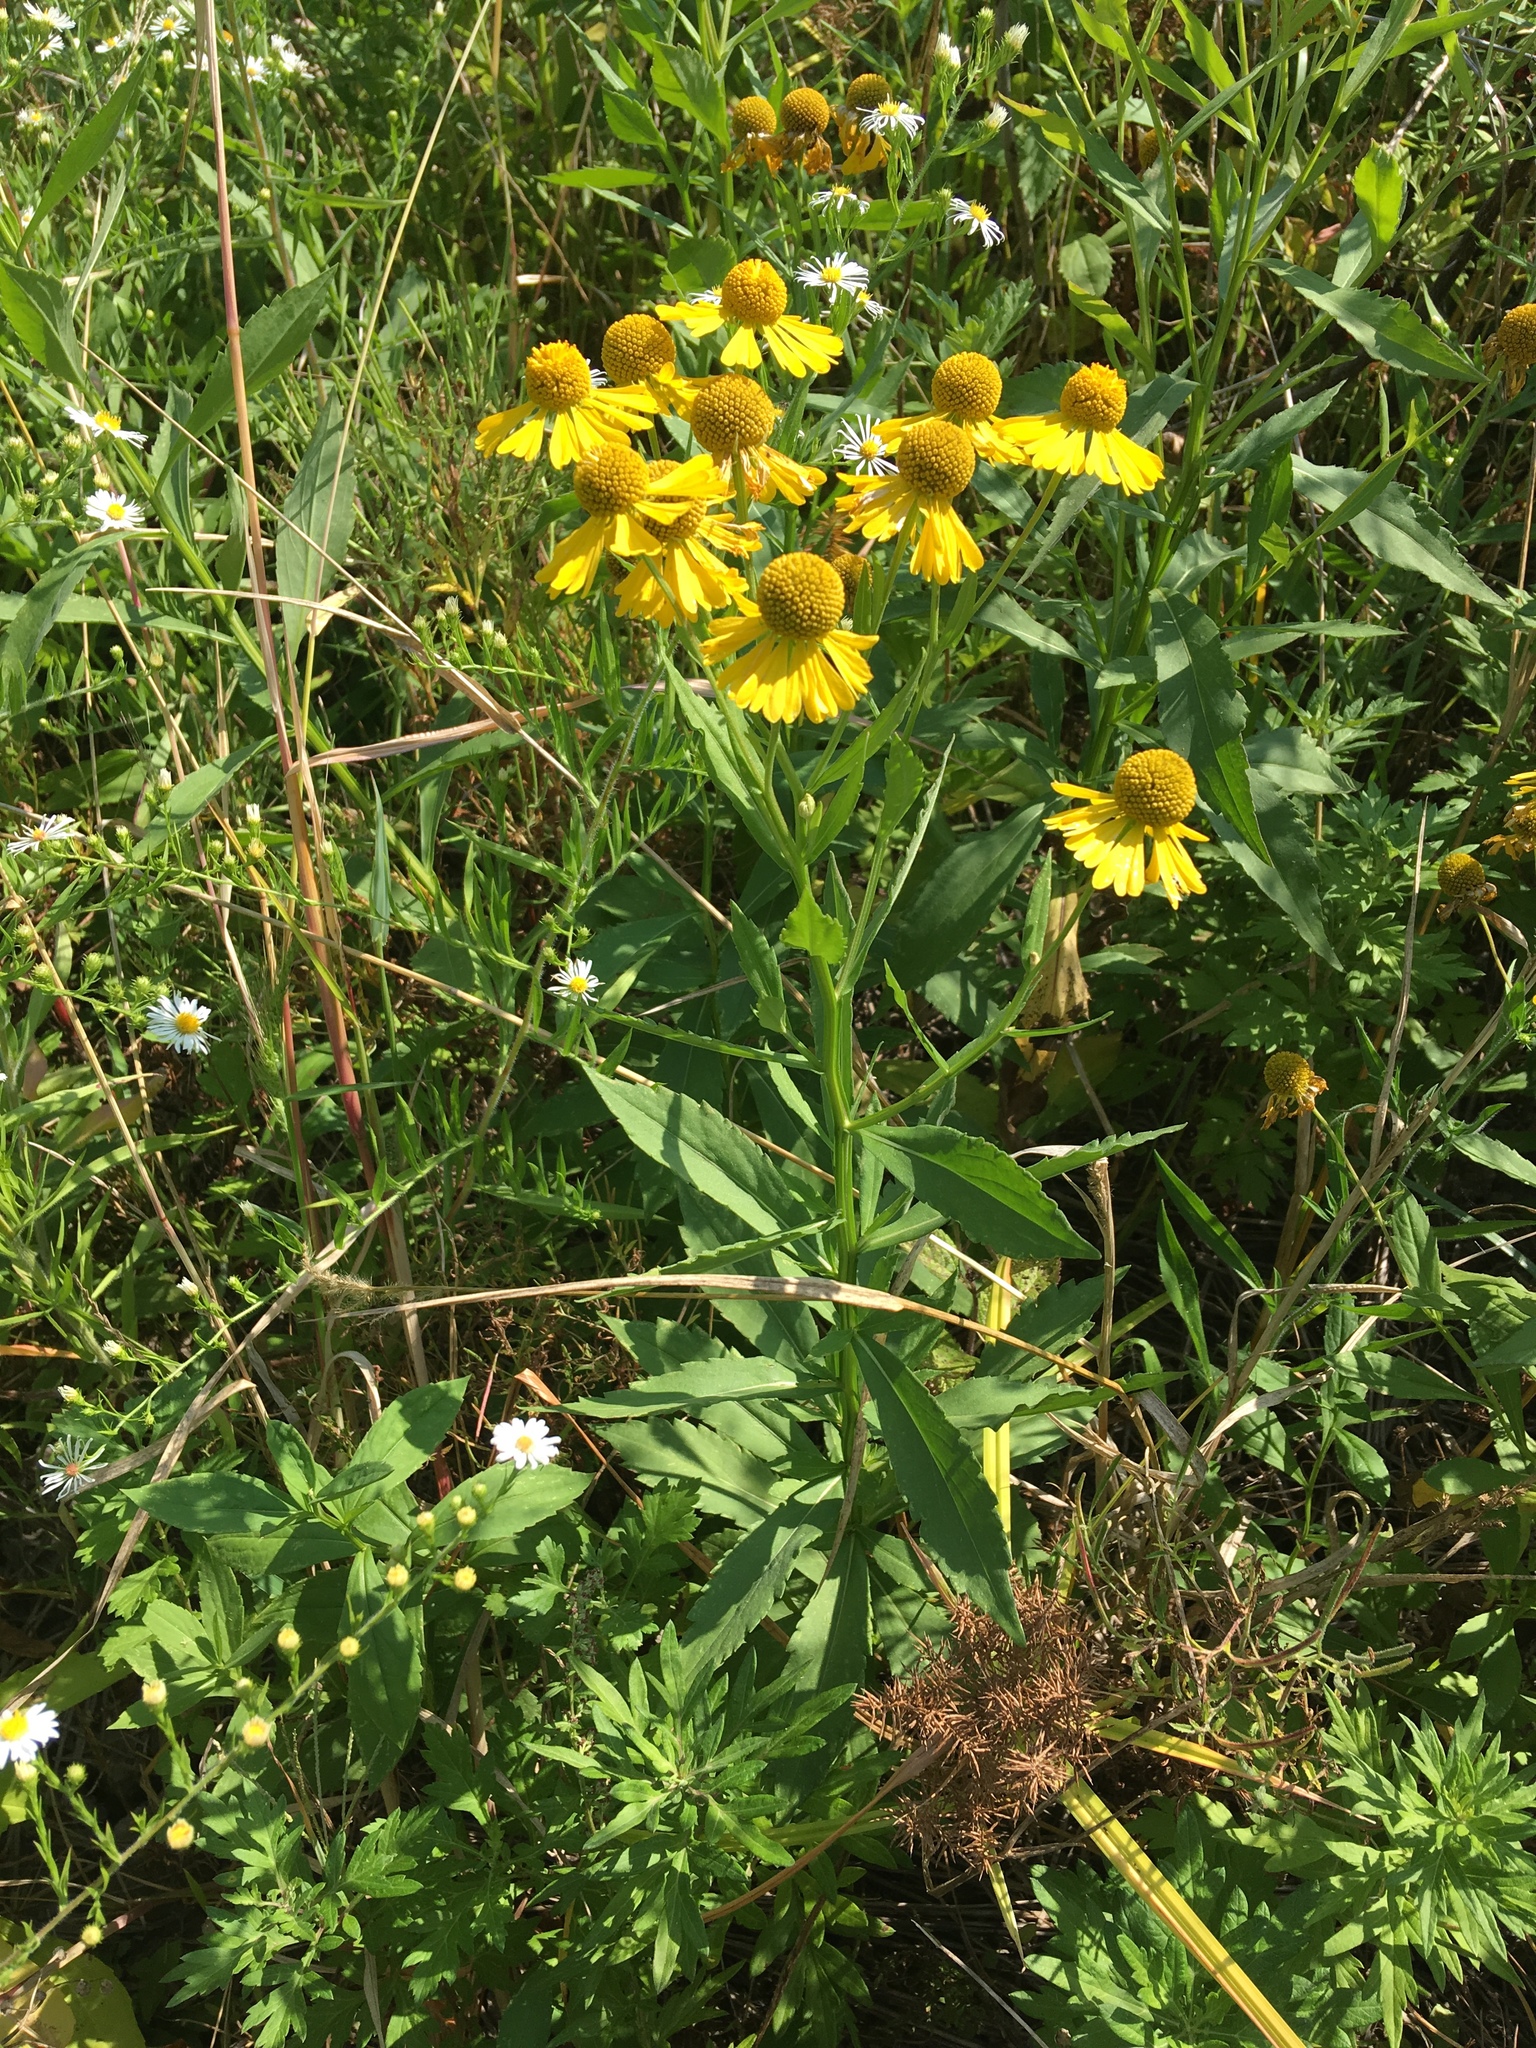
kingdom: Plantae
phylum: Tracheophyta
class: Magnoliopsida
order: Asterales
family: Asteraceae
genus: Helenium
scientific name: Helenium autumnale
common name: Sneezeweed
